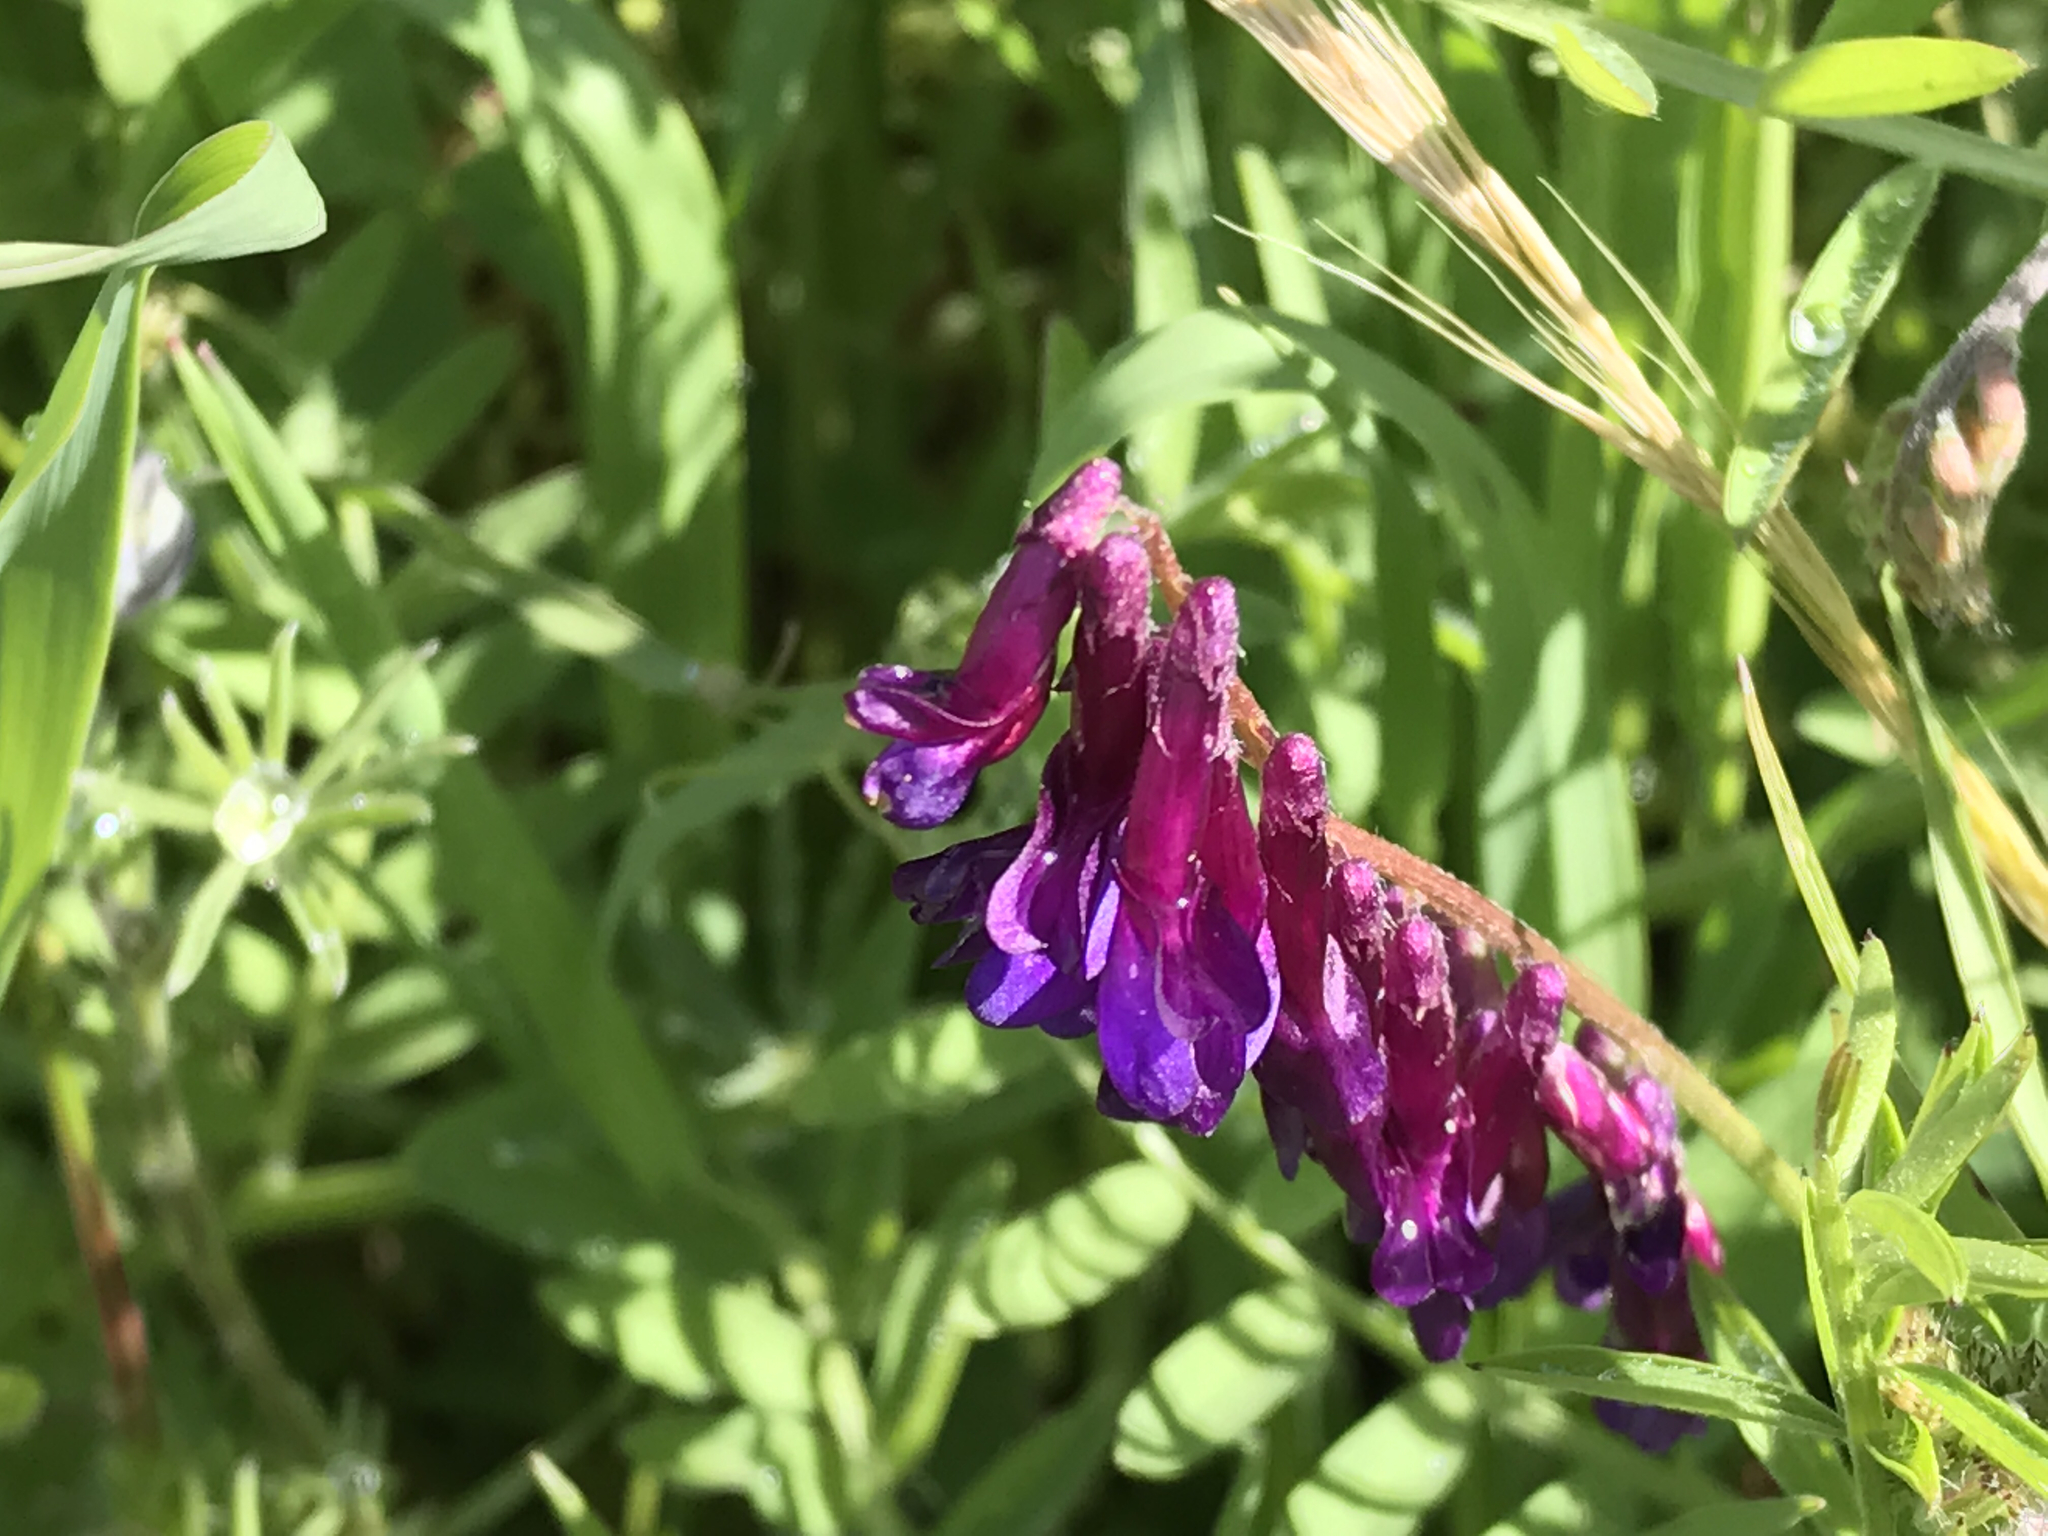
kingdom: Plantae
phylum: Tracheophyta
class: Magnoliopsida
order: Fabales
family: Fabaceae
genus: Vicia
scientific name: Vicia villosa
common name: Fodder vetch
